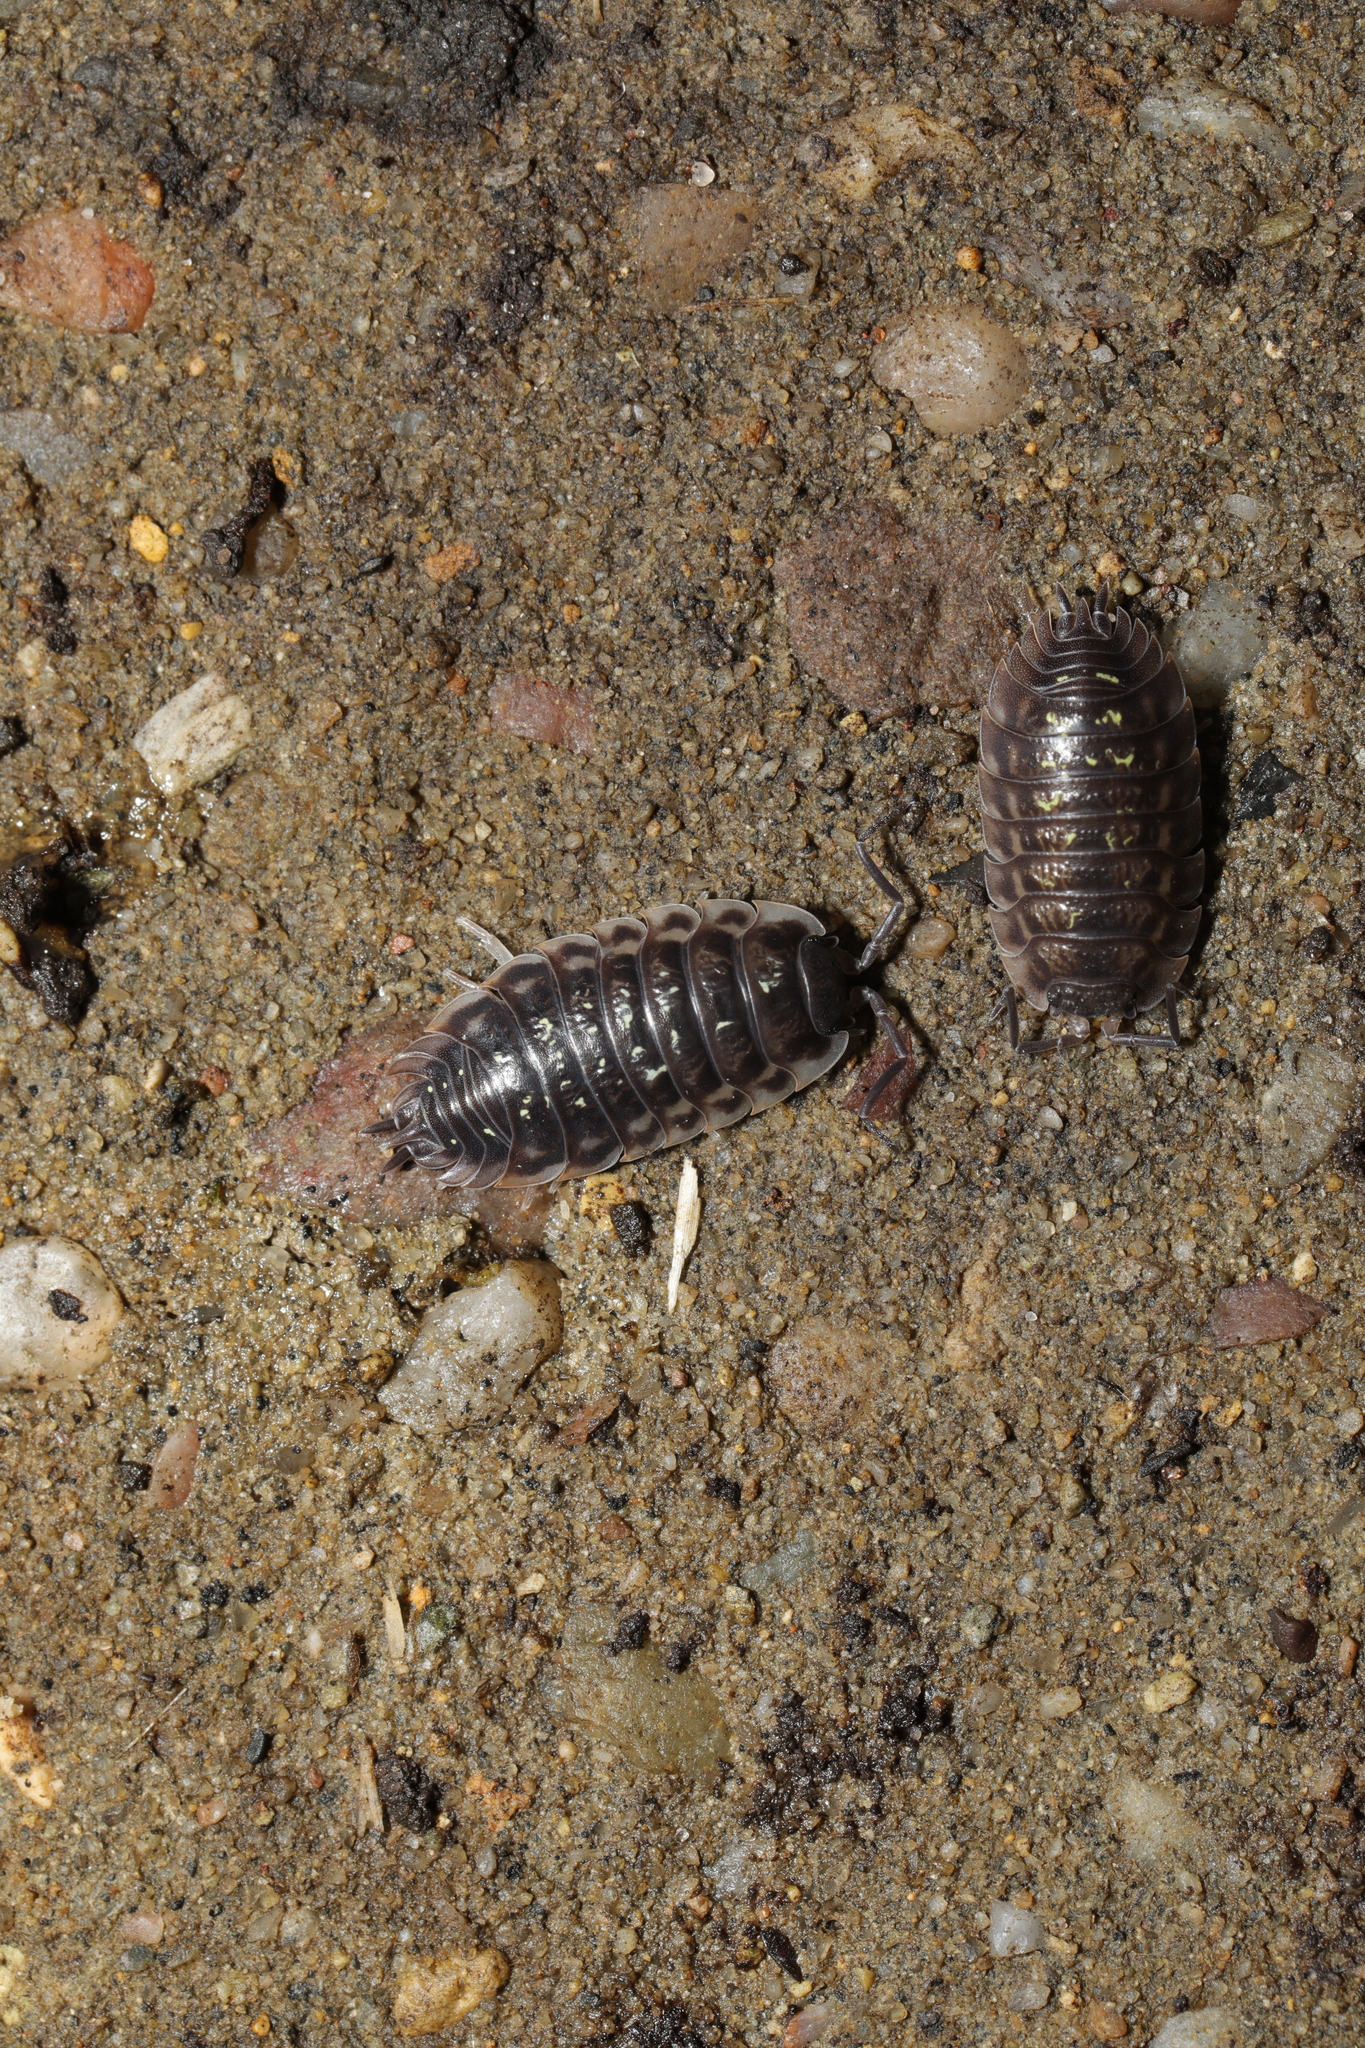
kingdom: Animalia
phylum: Arthropoda
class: Malacostraca
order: Isopoda
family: Oniscidae
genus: Oniscus
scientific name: Oniscus asellus
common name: Common shiny woodlouse
